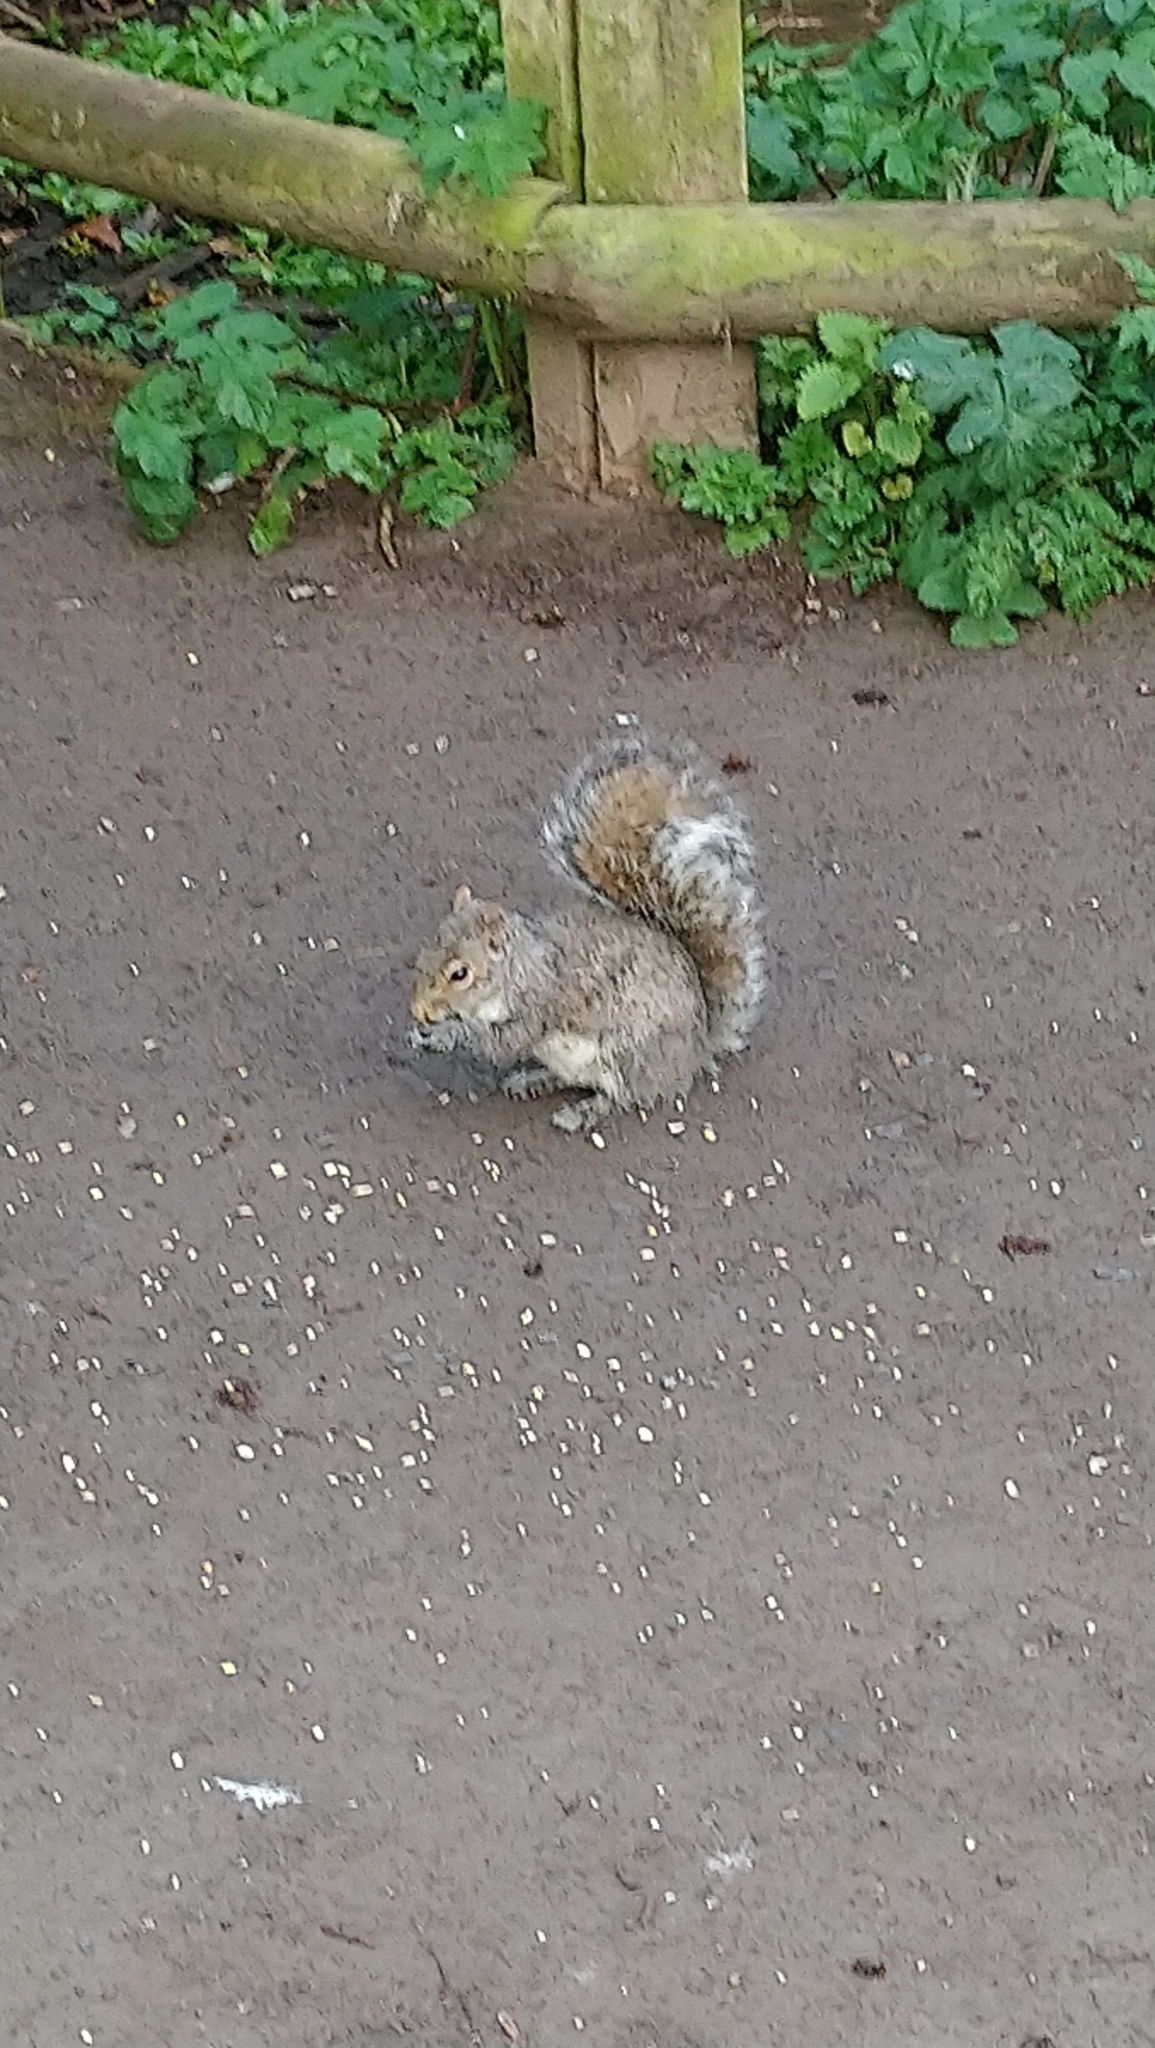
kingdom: Animalia
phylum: Chordata
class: Mammalia
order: Rodentia
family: Sciuridae
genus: Sciurus
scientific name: Sciurus carolinensis
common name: Eastern gray squirrel
